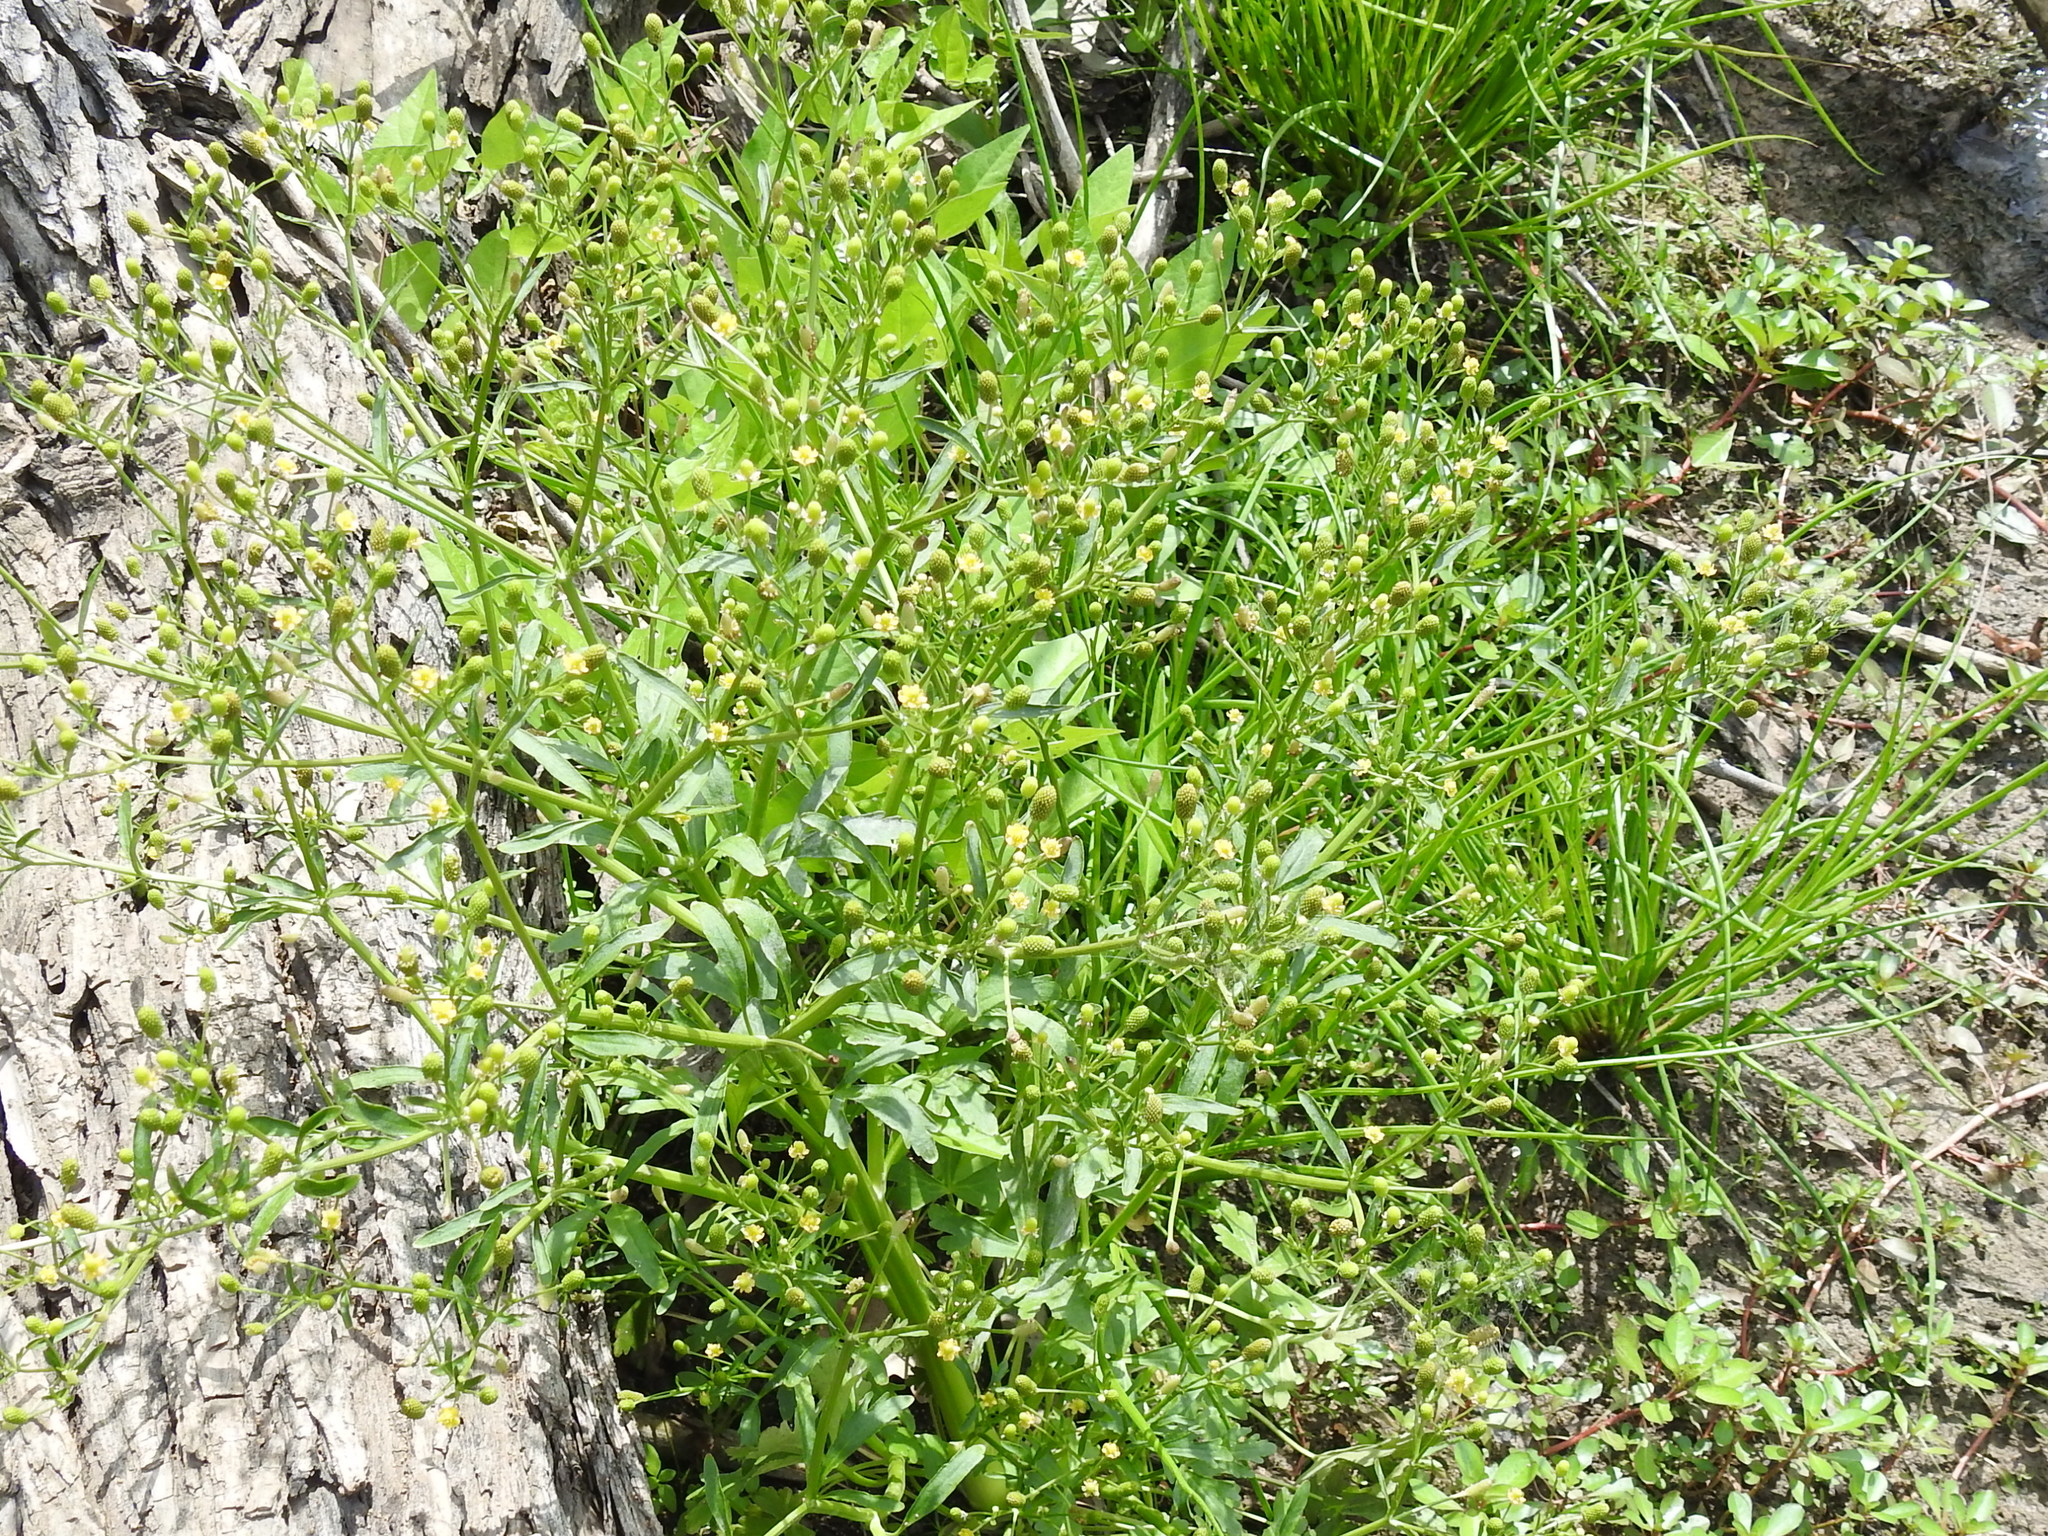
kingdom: Plantae
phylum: Tracheophyta
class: Magnoliopsida
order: Ranunculales
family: Ranunculaceae
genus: Ranunculus
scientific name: Ranunculus sceleratus
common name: Celery-leaved buttercup
